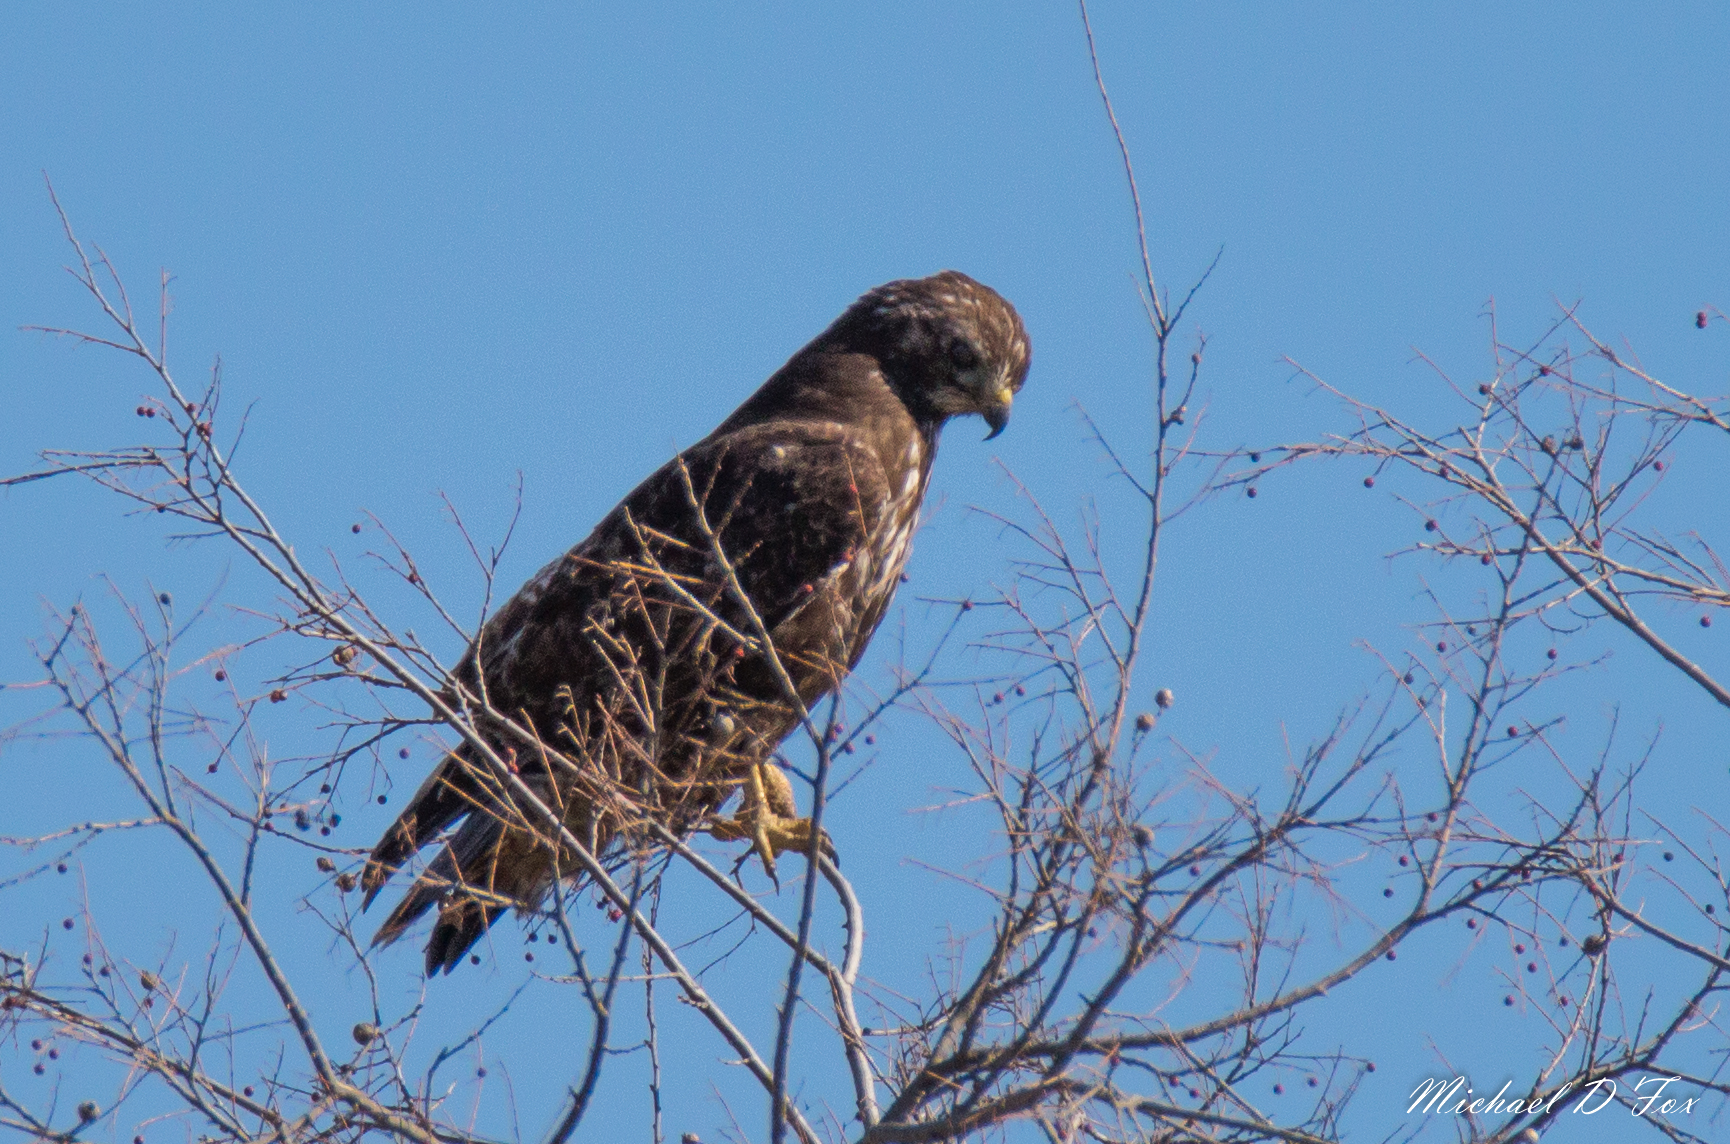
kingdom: Animalia
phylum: Chordata
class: Aves
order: Accipitriformes
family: Accipitridae
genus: Buteo
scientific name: Buteo jamaicensis
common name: Red-tailed hawk
